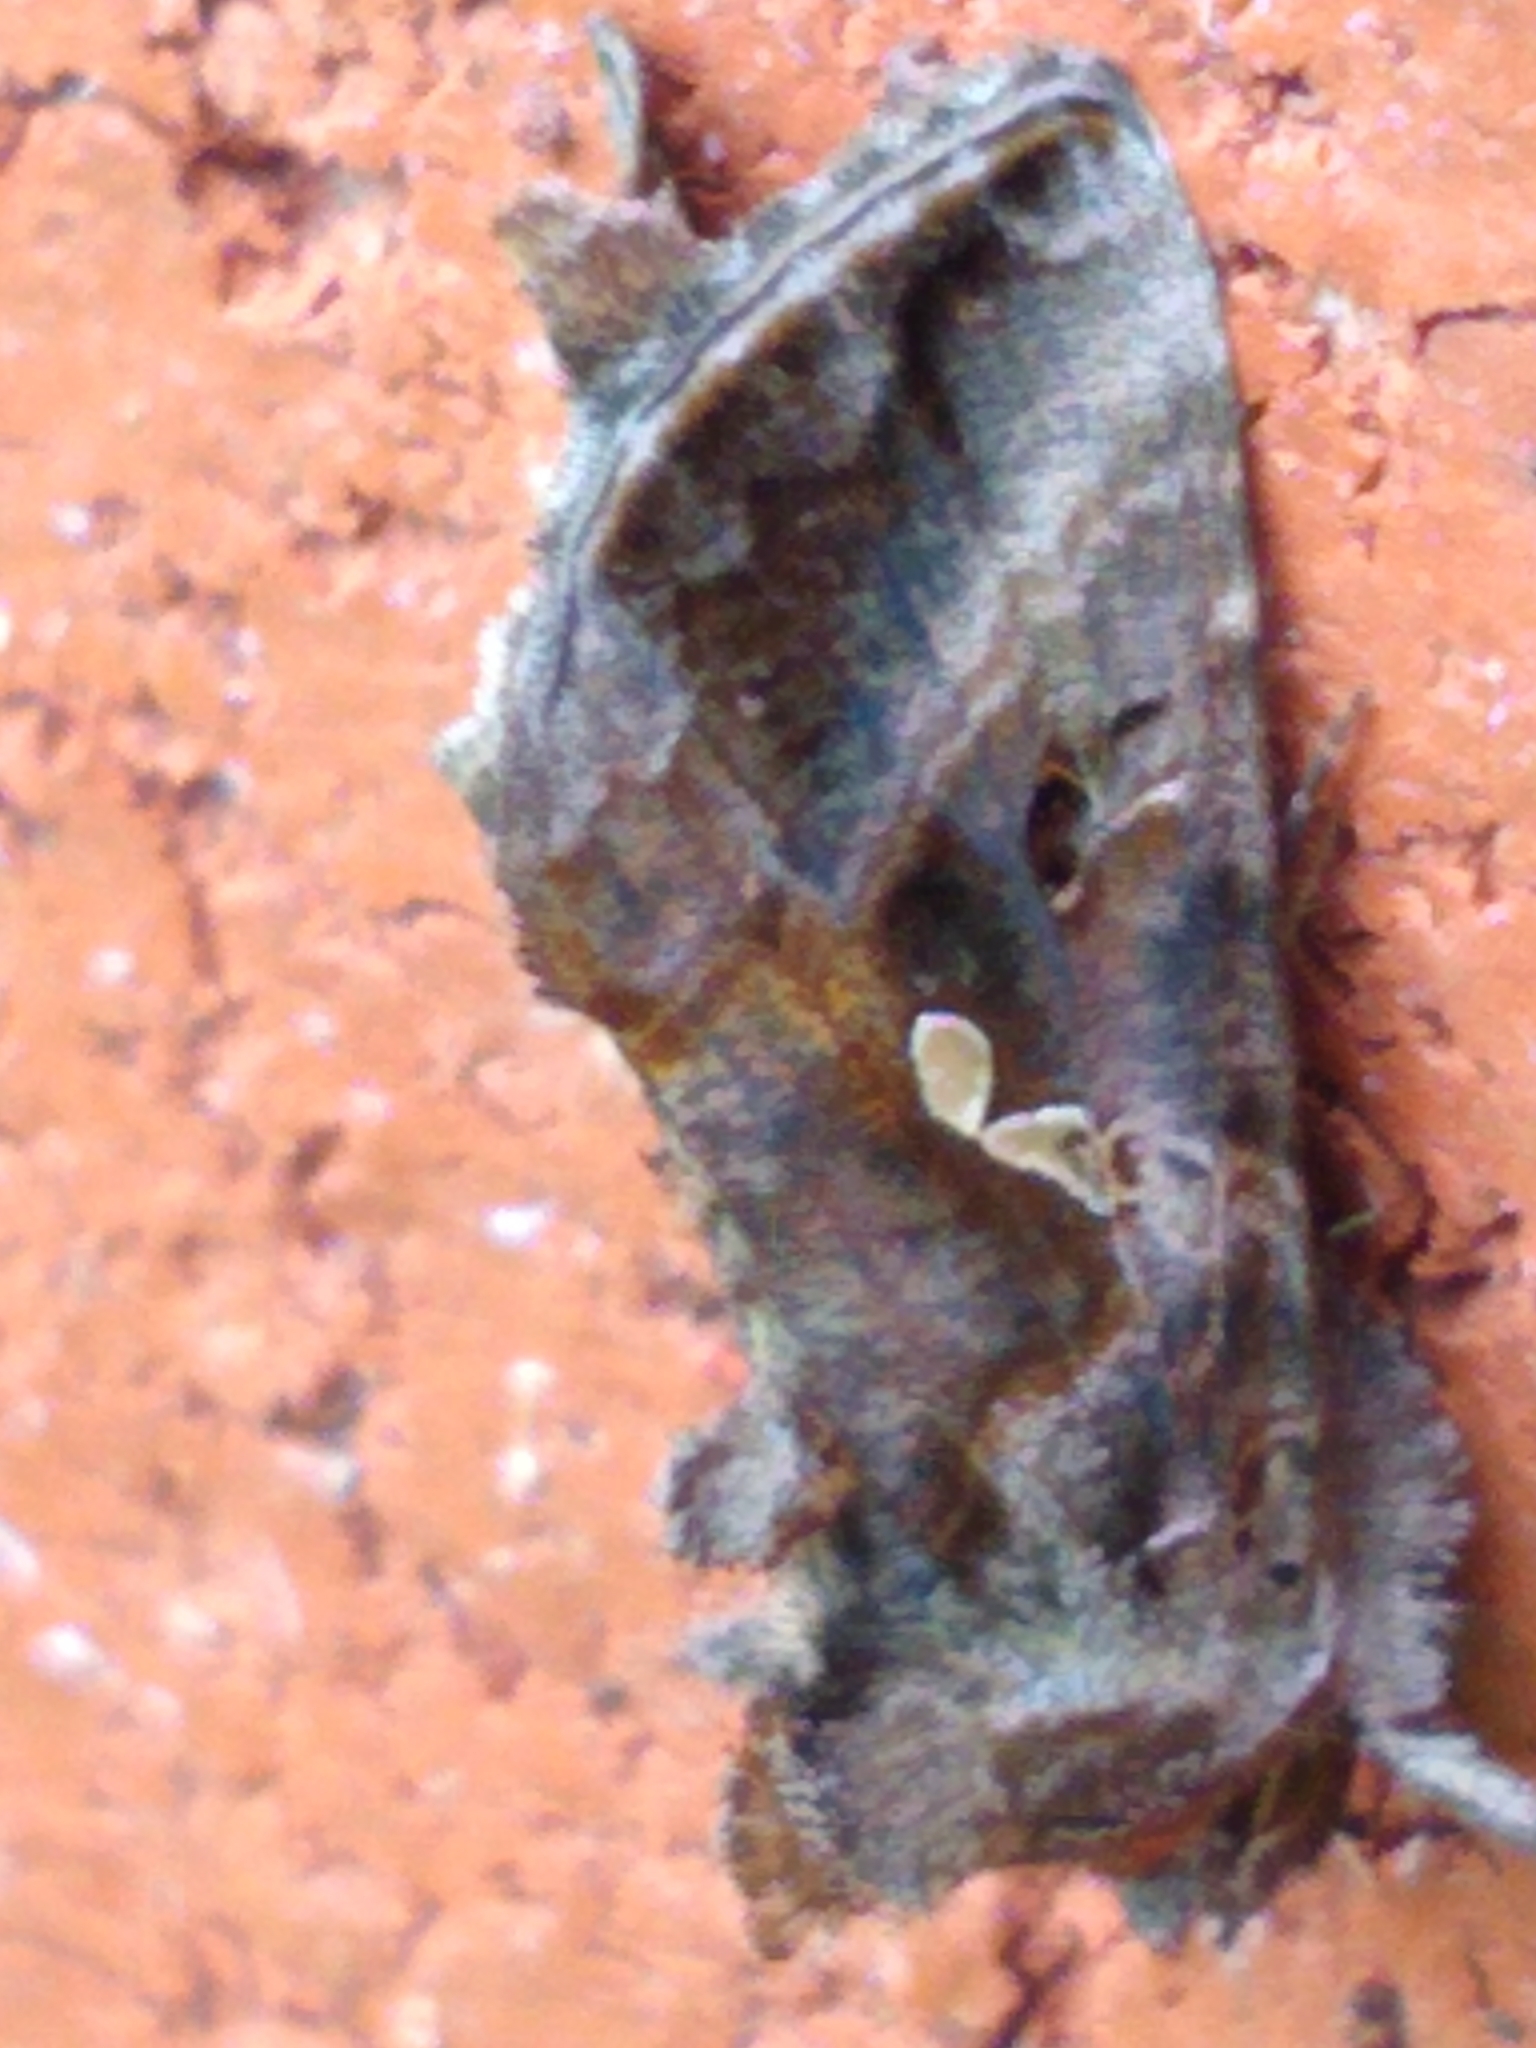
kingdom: Animalia
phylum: Arthropoda
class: Insecta
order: Lepidoptera
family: Noctuidae
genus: Autographa
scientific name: Autographa precationis
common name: Common looper moth
